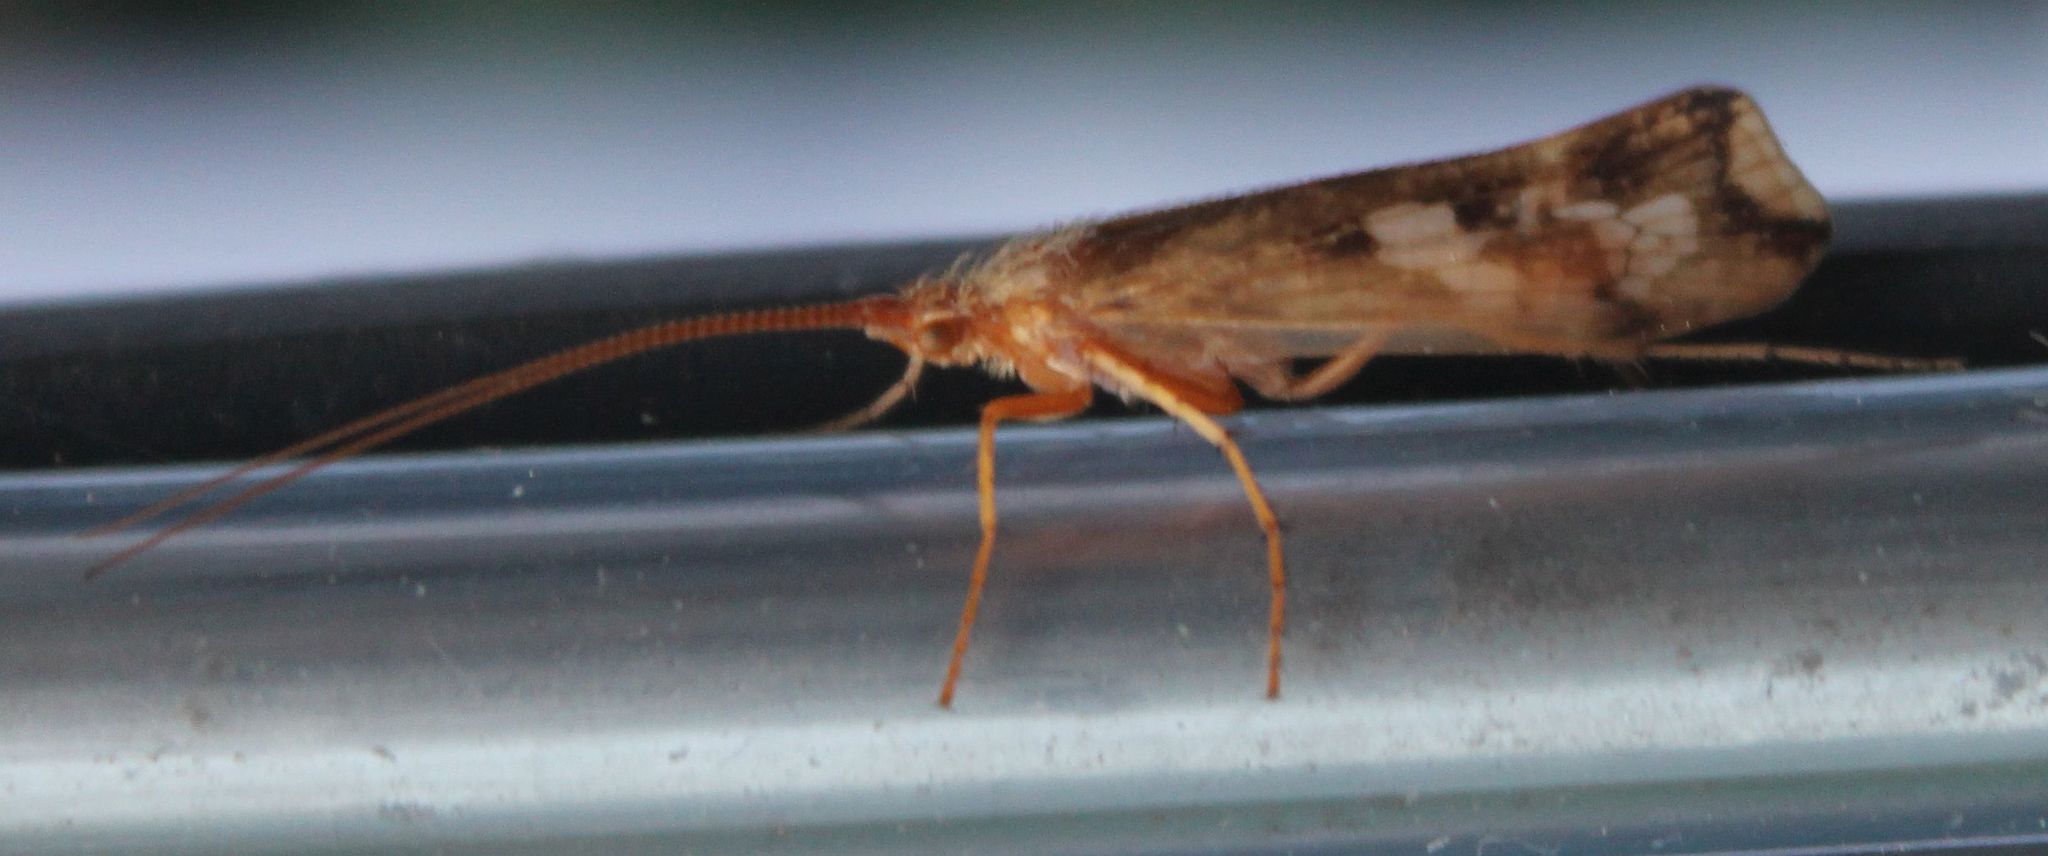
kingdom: Animalia
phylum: Arthropoda
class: Insecta
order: Trichoptera
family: Limnephilidae
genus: Limnephilus
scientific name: Limnephilus lunatus
